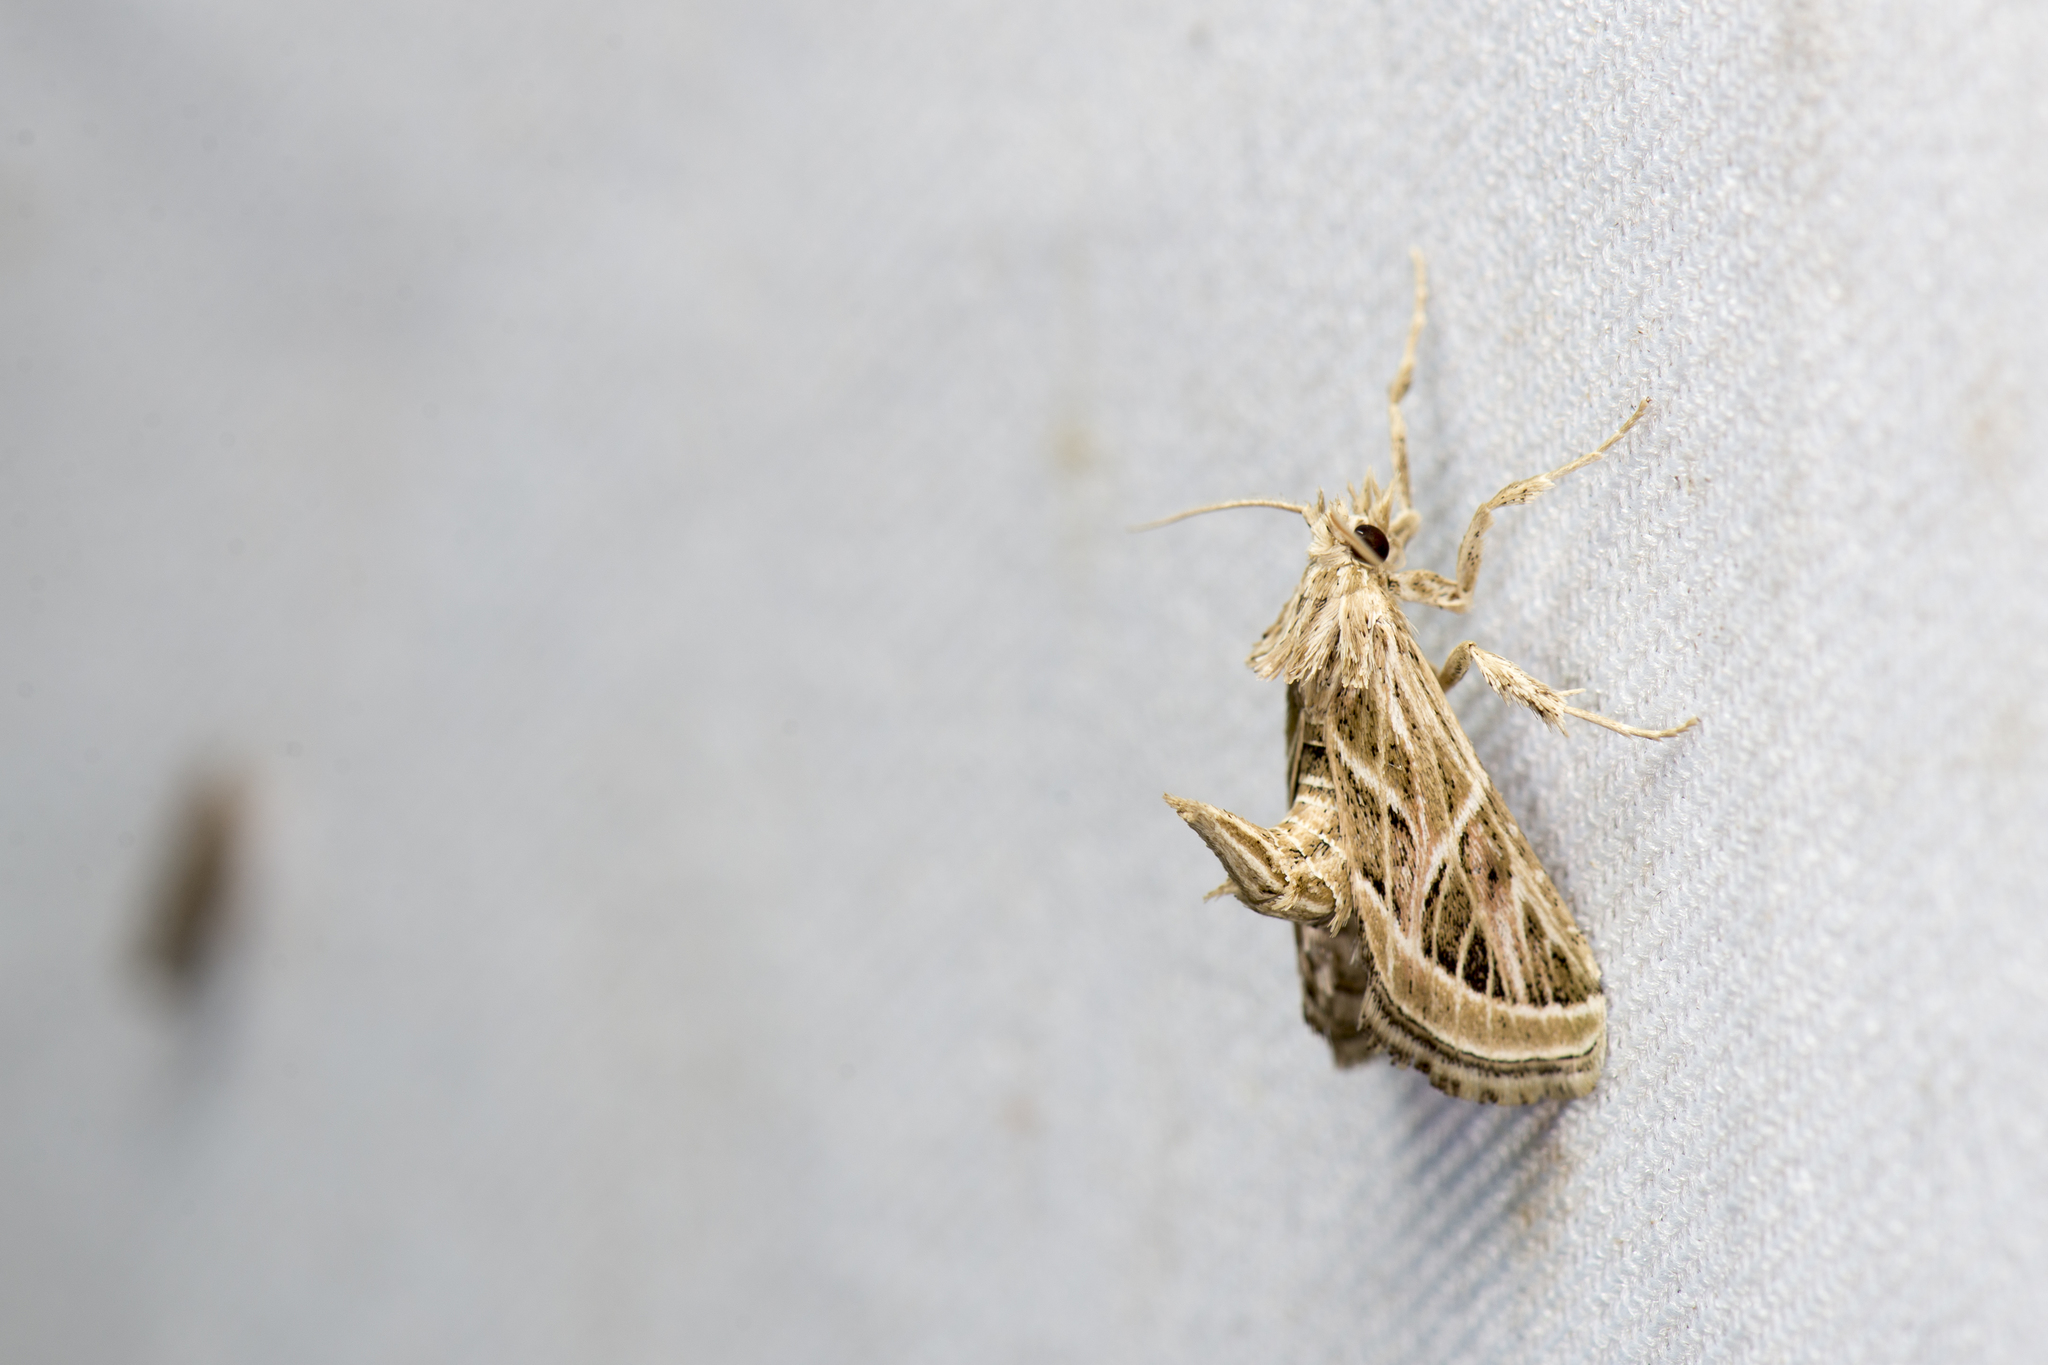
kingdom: Animalia
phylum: Arthropoda
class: Insecta
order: Lepidoptera
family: Pyralidae
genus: Loryma
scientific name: Loryma recusata
